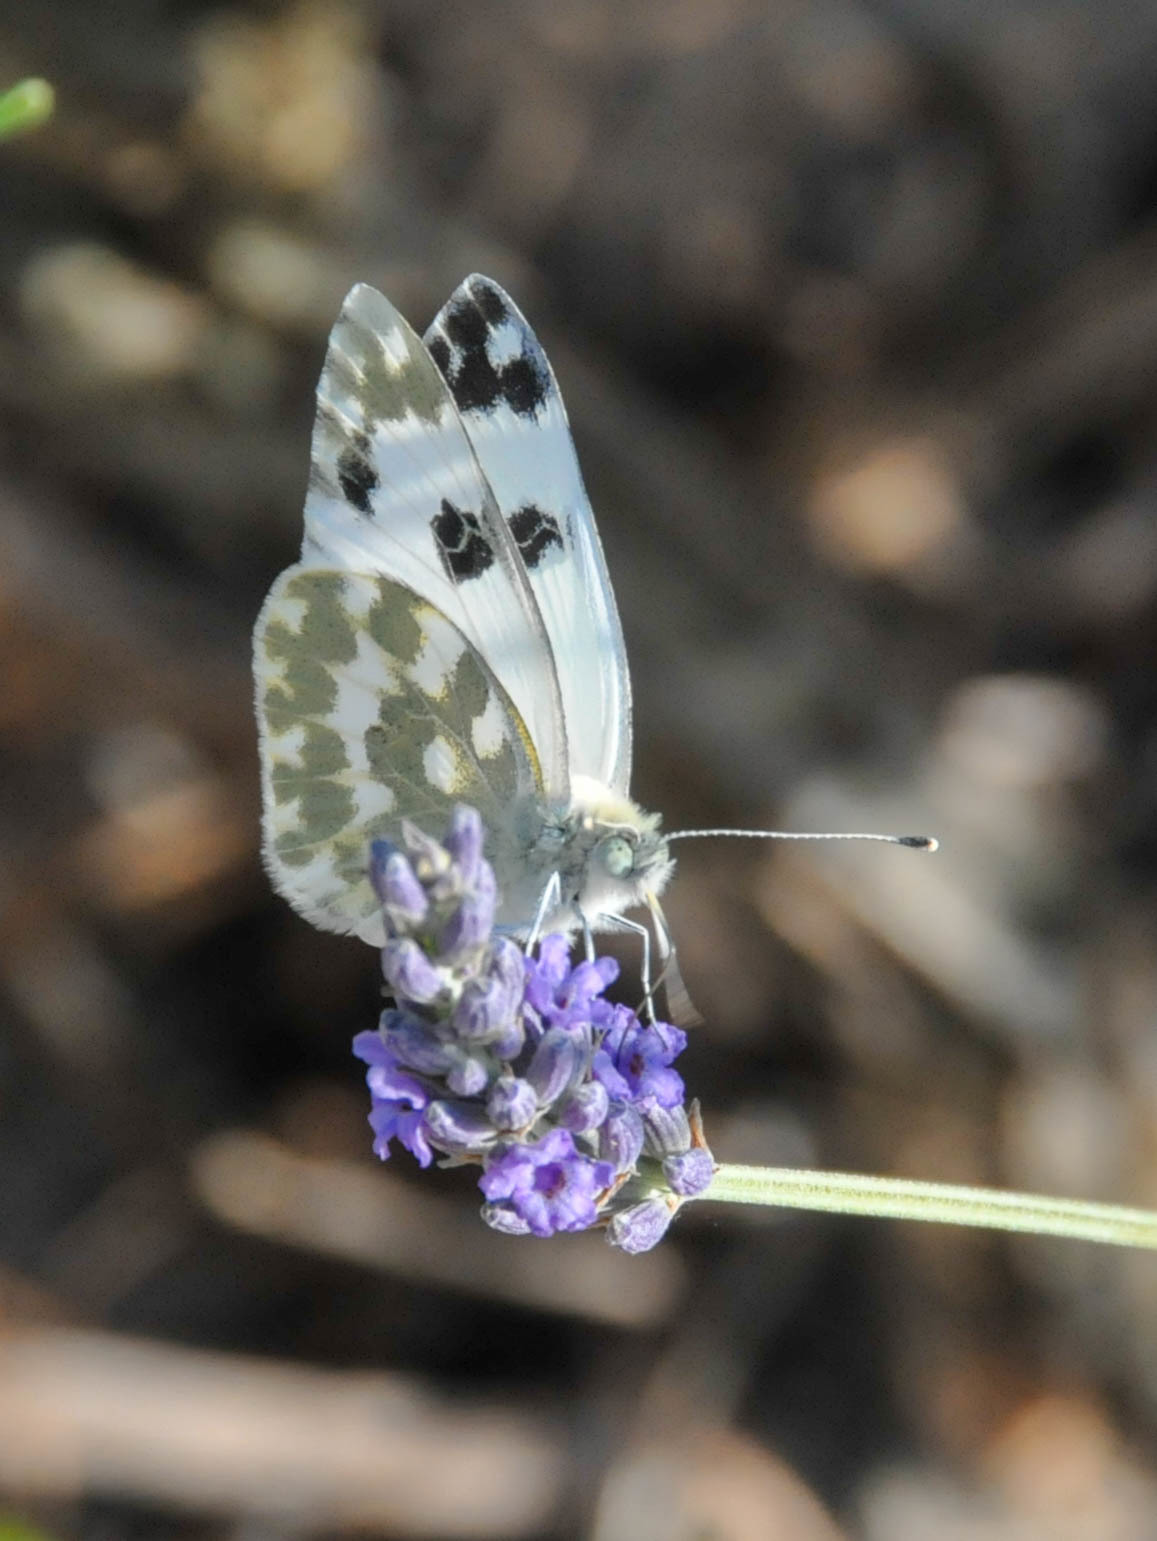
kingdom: Animalia
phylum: Arthropoda
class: Insecta
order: Lepidoptera
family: Pieridae
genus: Pontia
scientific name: Pontia daplidice
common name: Bath white
